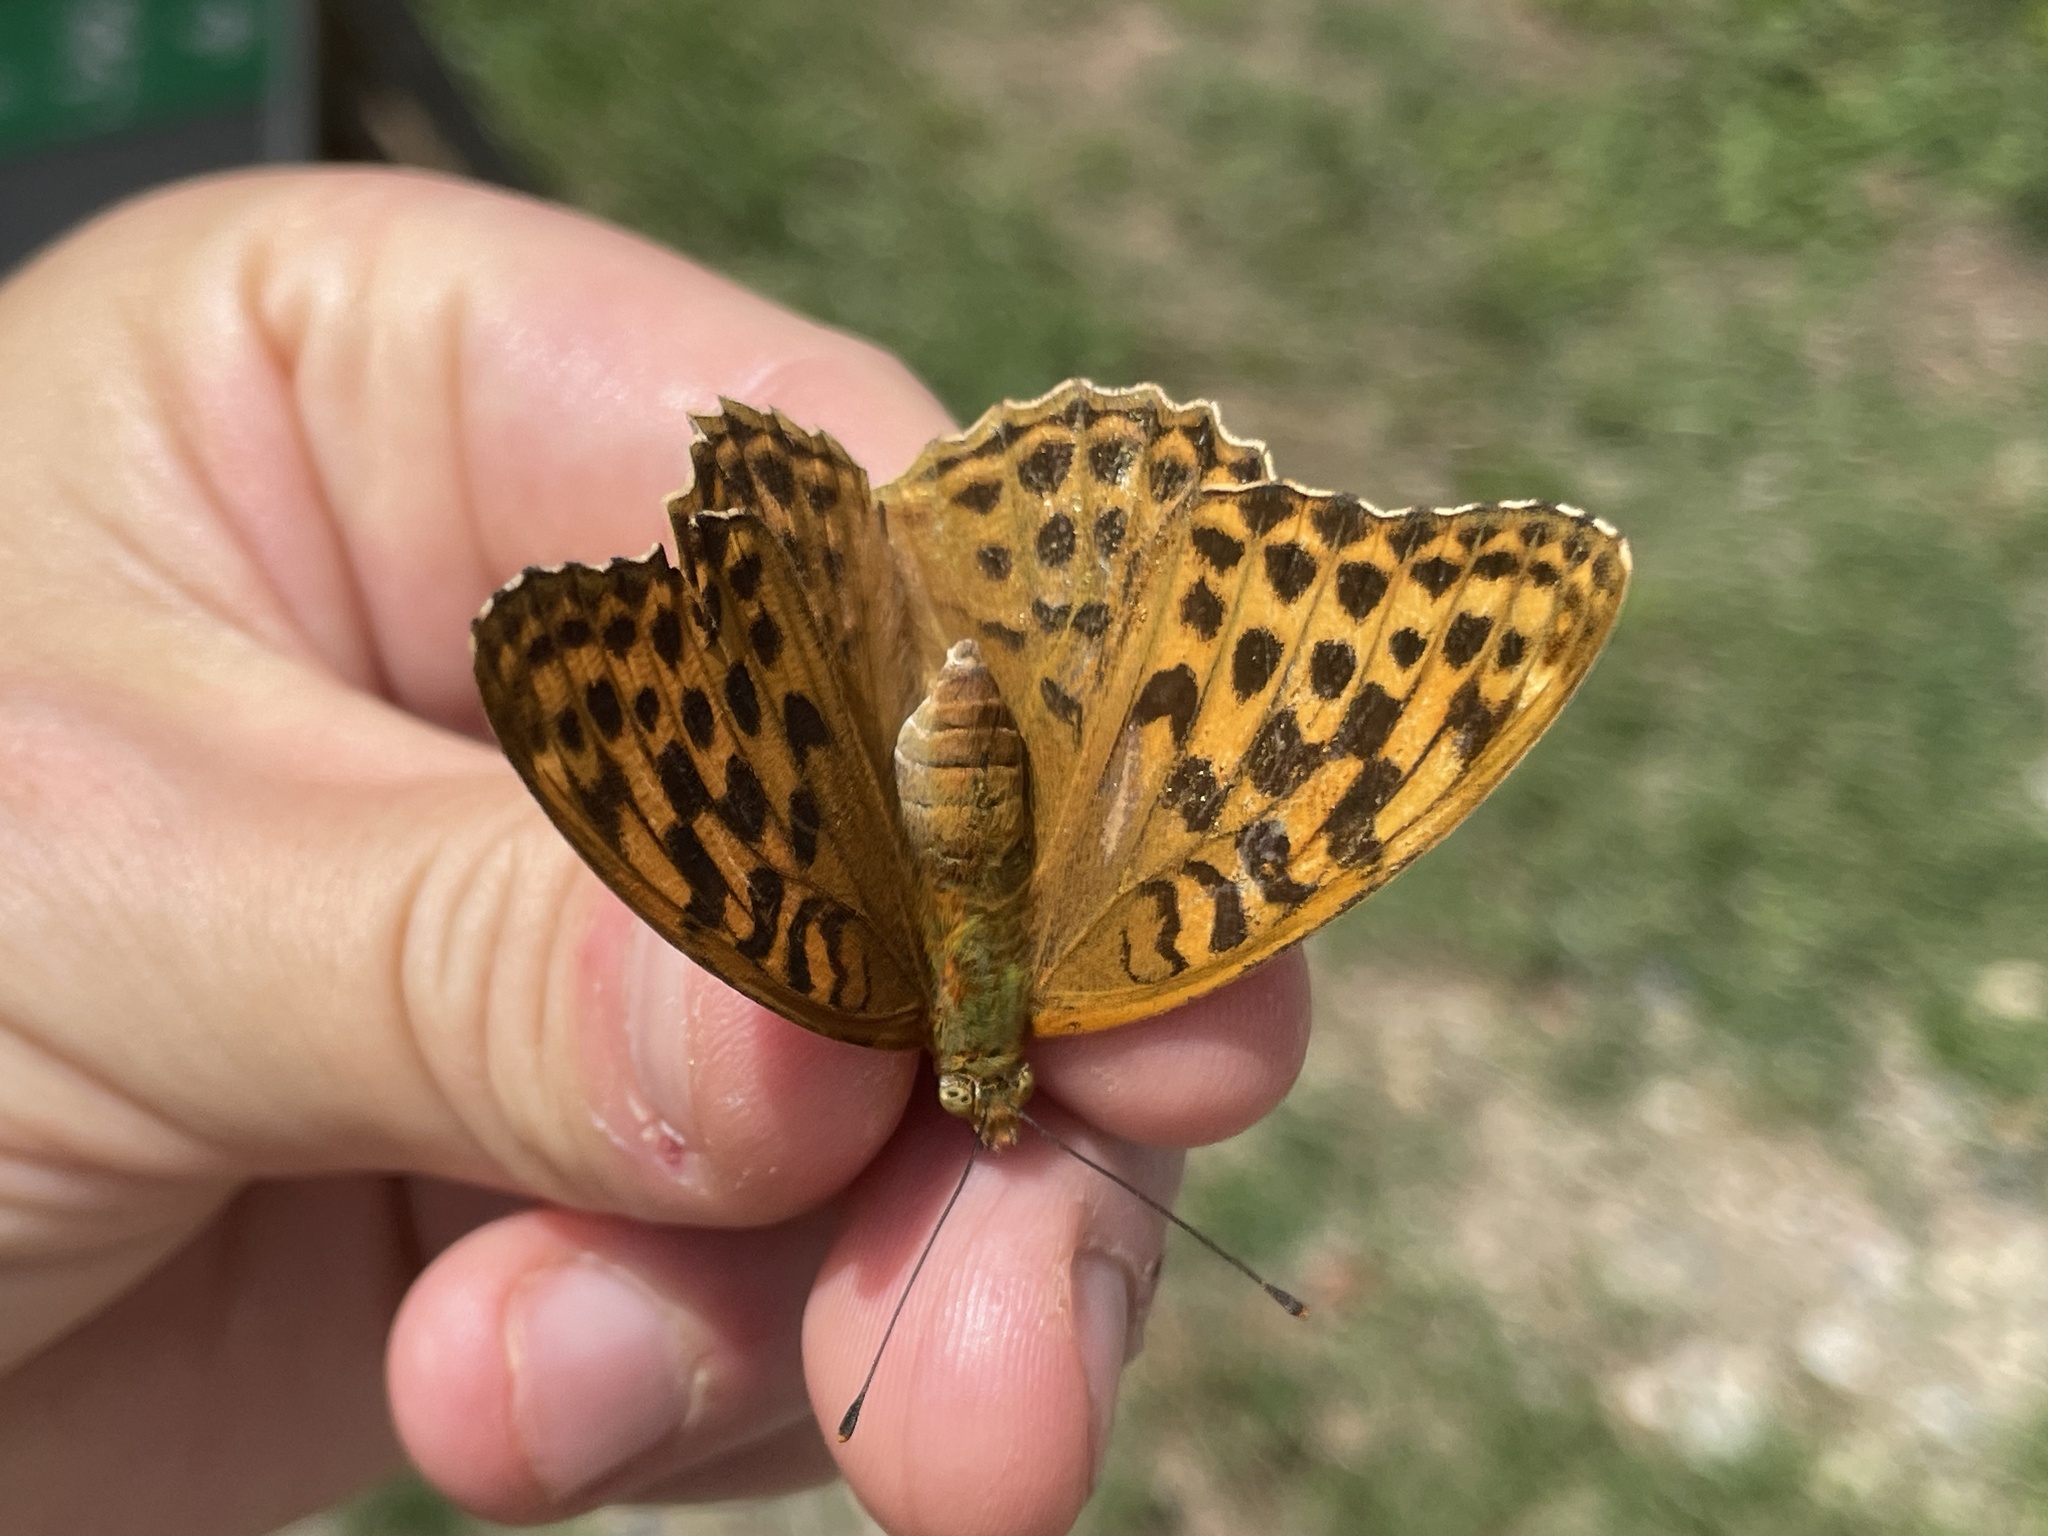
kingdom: Animalia
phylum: Arthropoda
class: Insecta
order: Lepidoptera
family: Nymphalidae
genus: Argynnis
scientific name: Argynnis paphia
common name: Silver-washed fritillary
